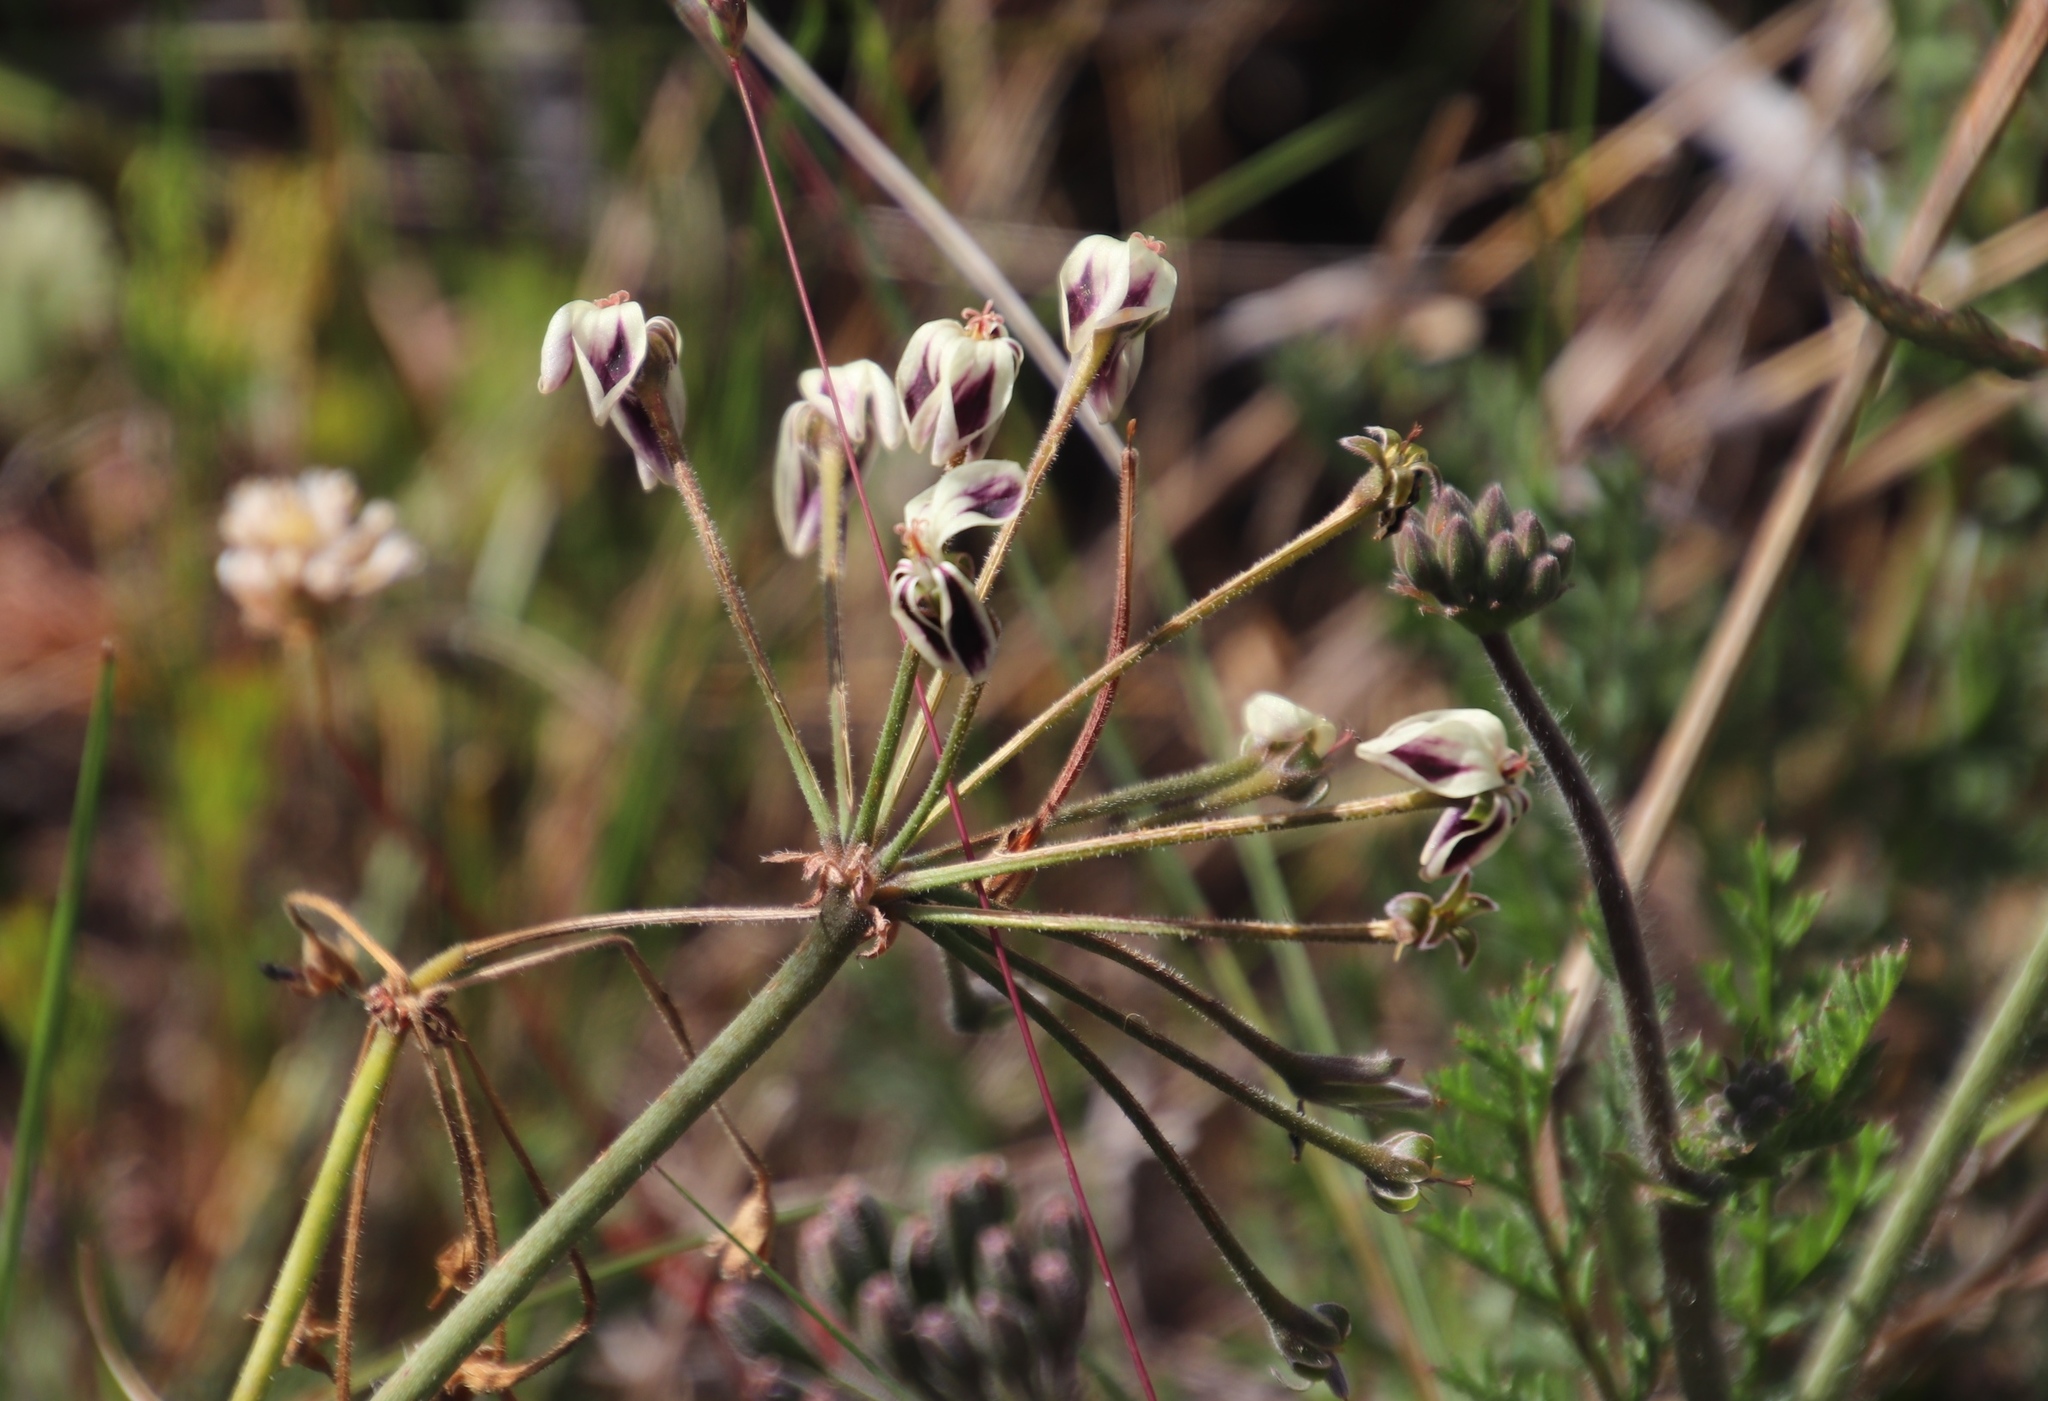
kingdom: Plantae
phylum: Tracheophyta
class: Magnoliopsida
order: Geraniales
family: Geraniaceae
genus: Pelargonium
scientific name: Pelargonium triste
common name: Night-scent pelargonium
